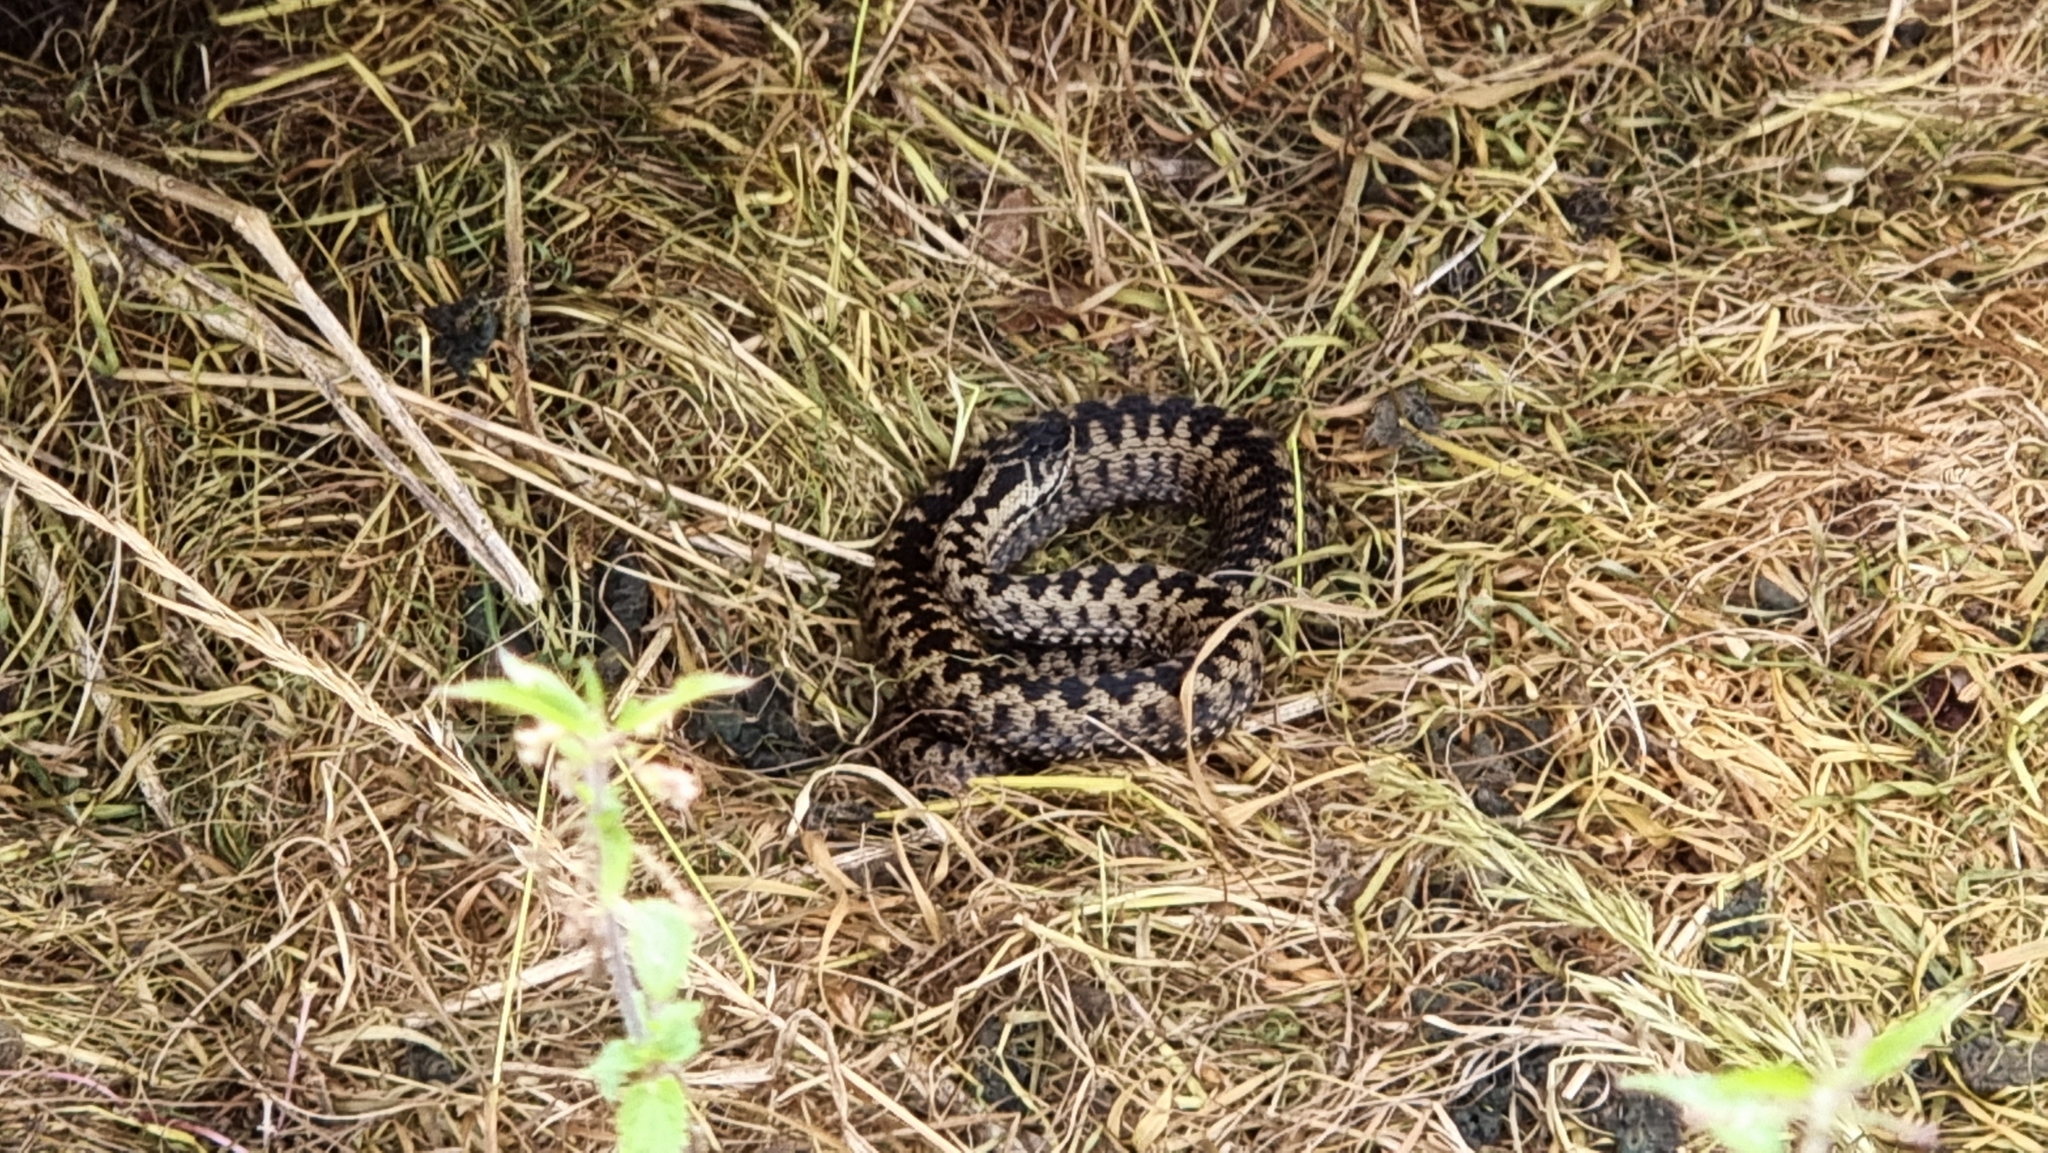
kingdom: Animalia
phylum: Chordata
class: Squamata
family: Viperidae
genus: Vipera
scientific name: Vipera berus
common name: Adder
